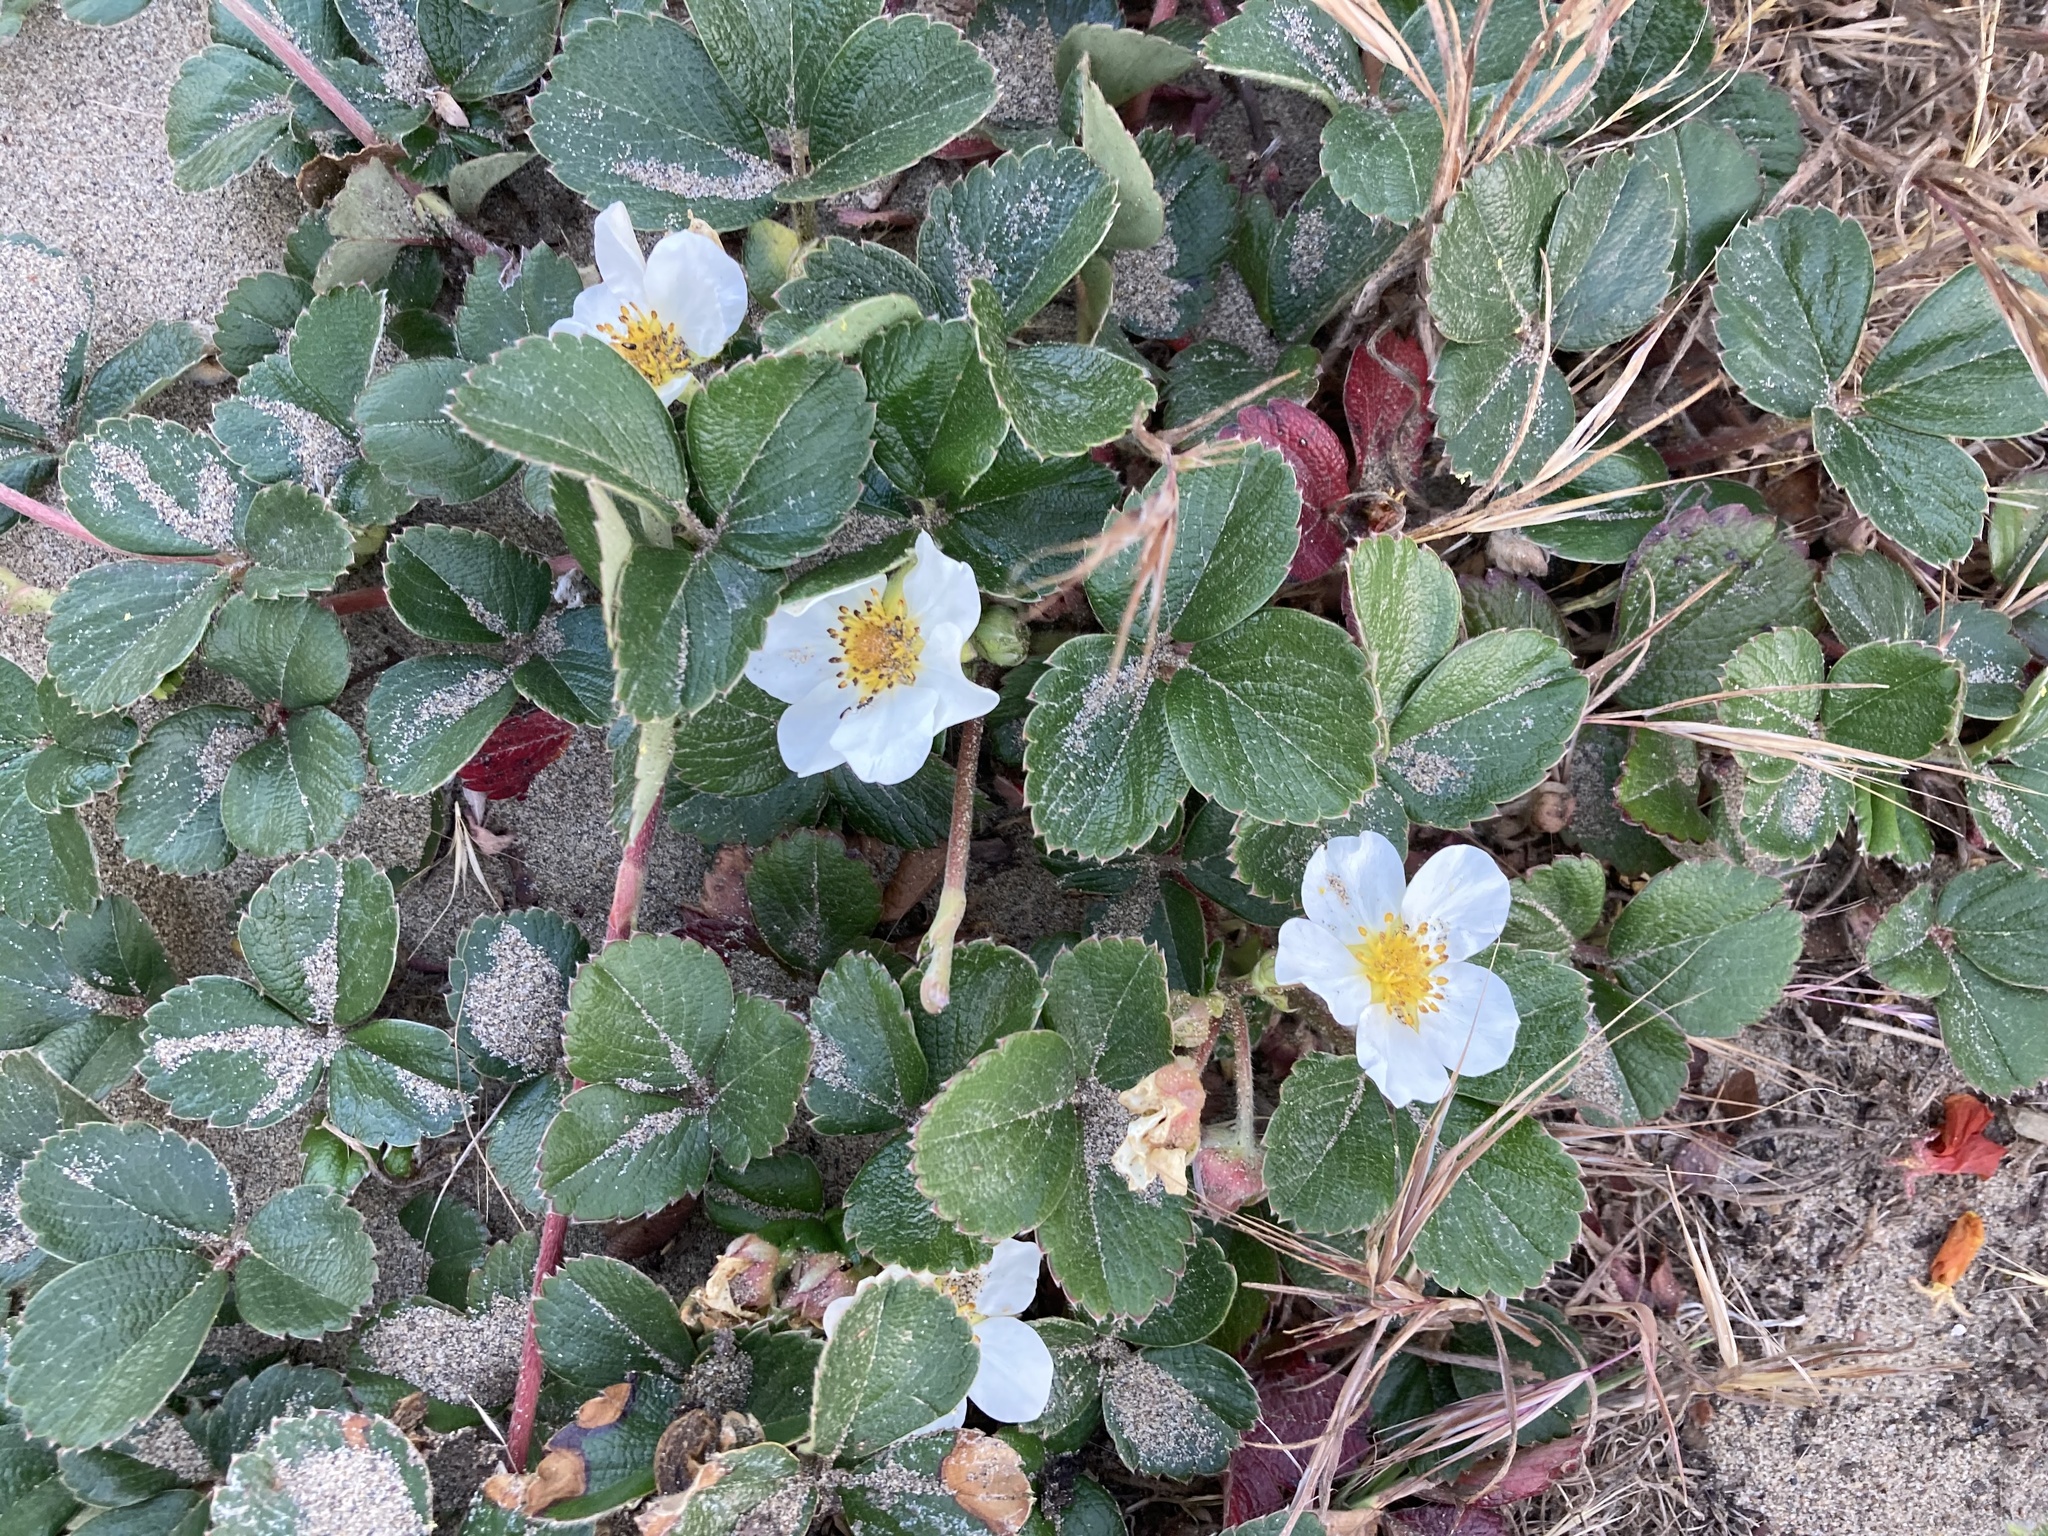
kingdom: Plantae
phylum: Tracheophyta
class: Magnoliopsida
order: Rosales
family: Rosaceae
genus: Fragaria
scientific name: Fragaria chiloensis
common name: Beach strawberry
